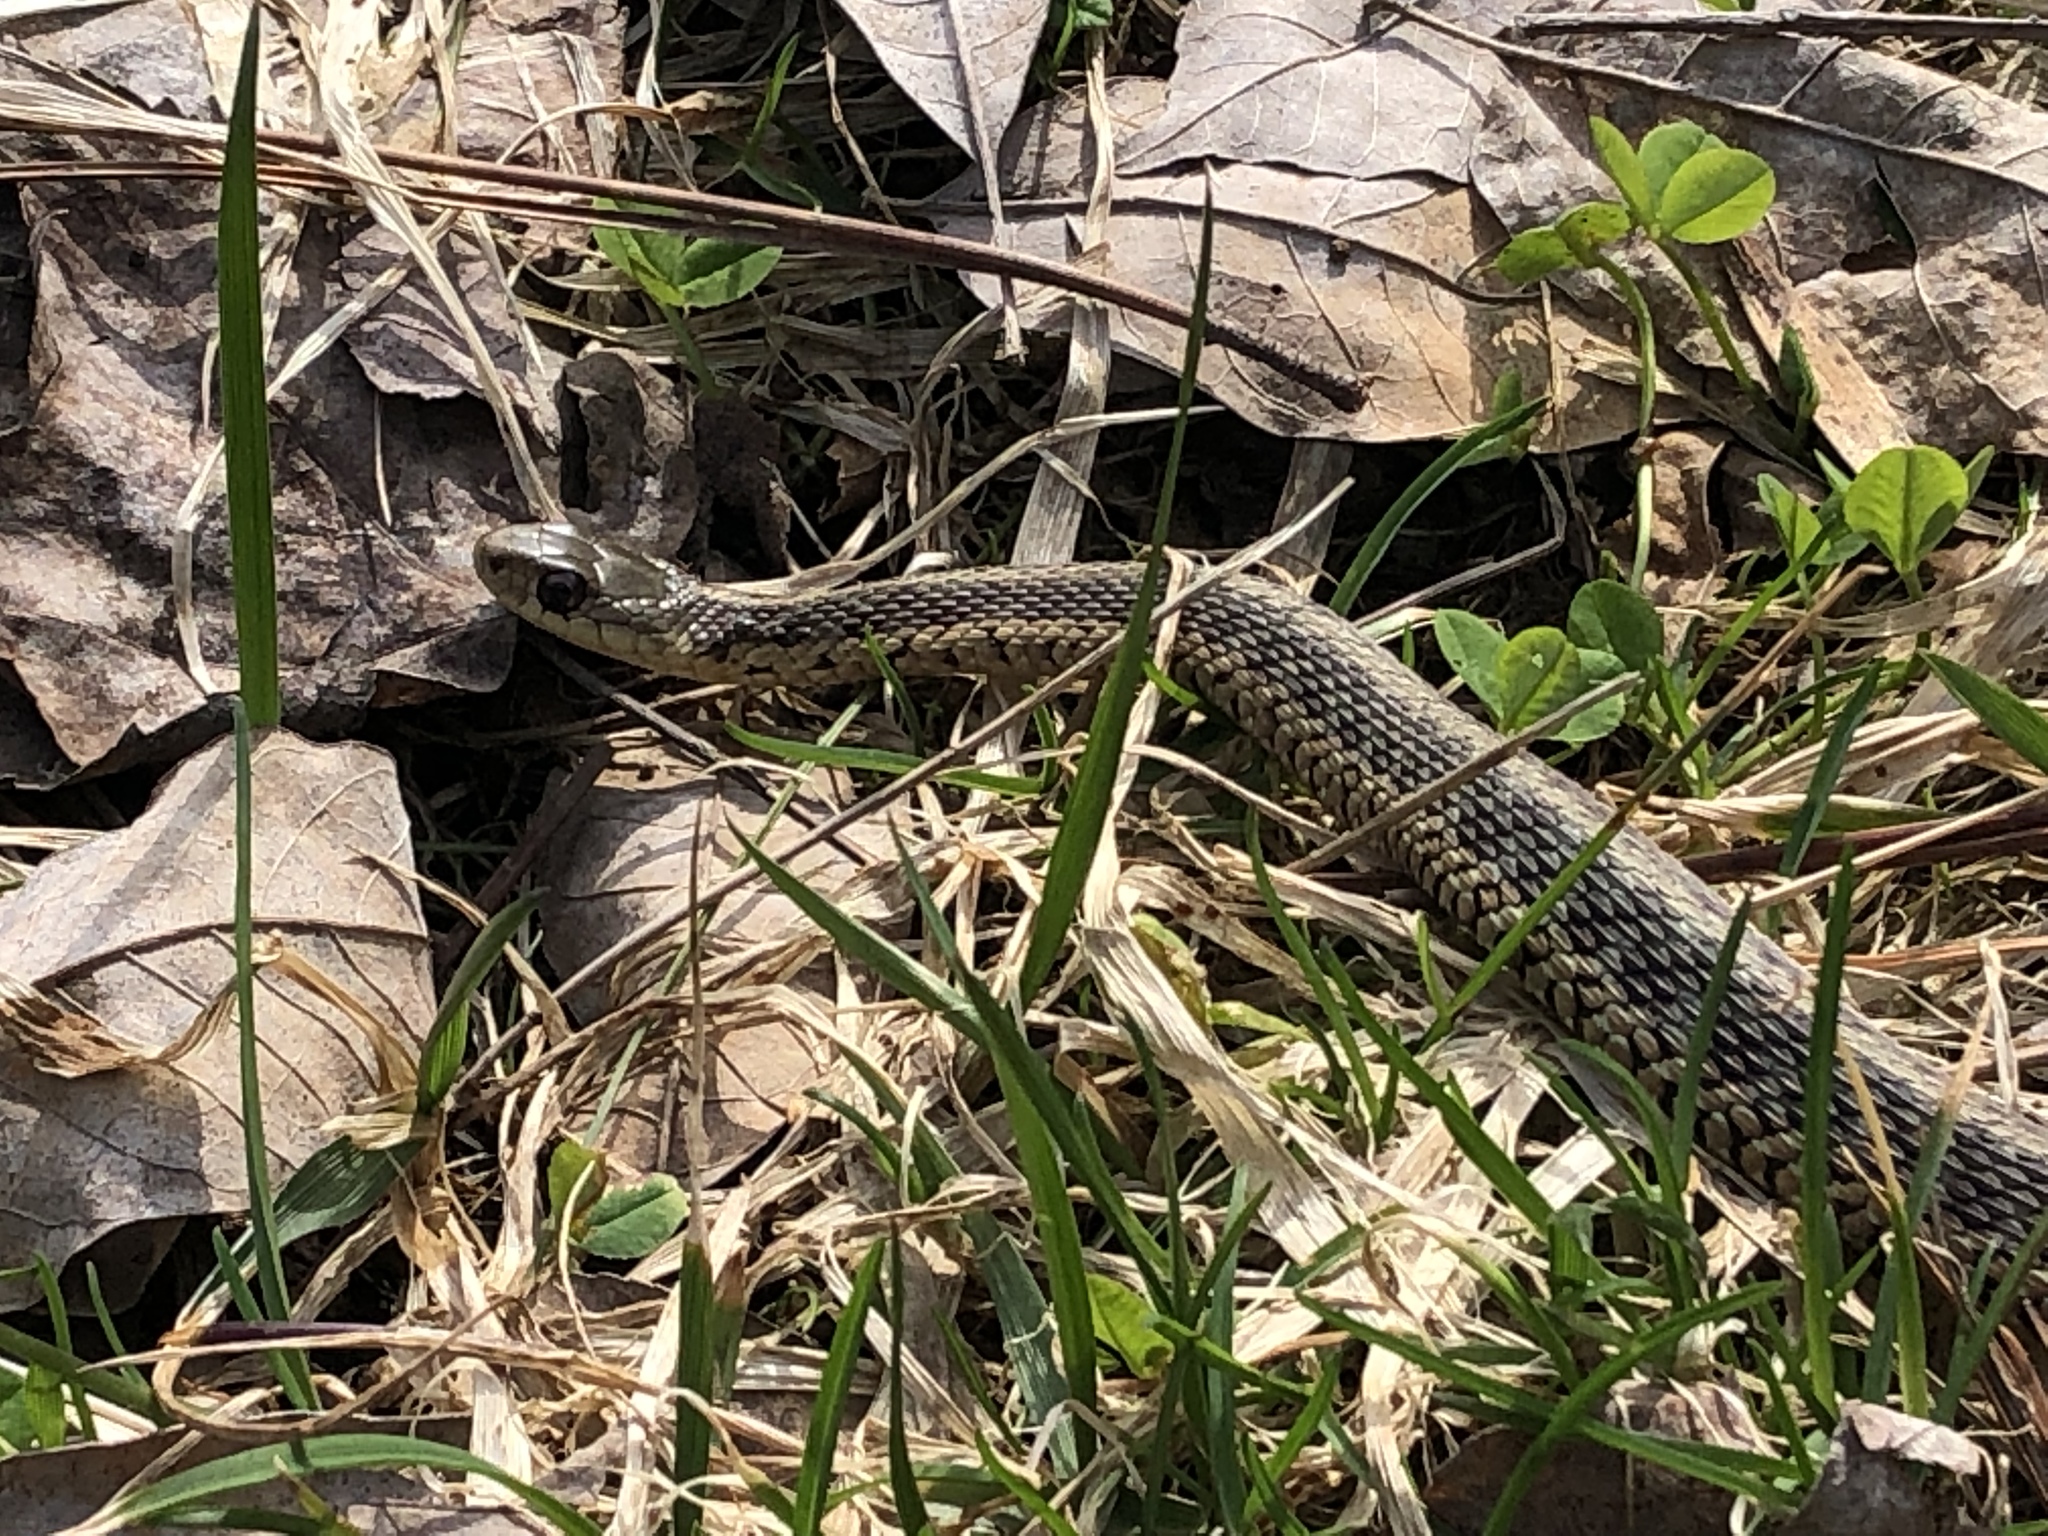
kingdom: Animalia
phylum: Chordata
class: Squamata
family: Colubridae
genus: Thamnophis
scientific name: Thamnophis sirtalis
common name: Common garter snake
